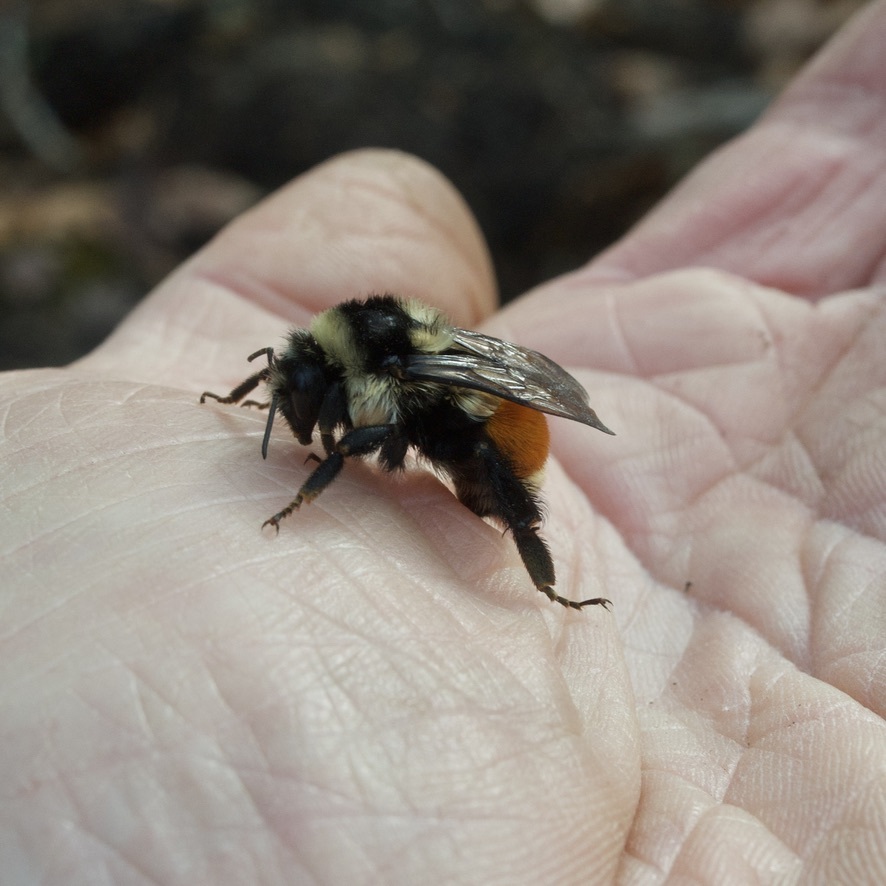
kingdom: Animalia
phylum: Arthropoda
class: Insecta
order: Hymenoptera
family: Apidae
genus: Bombus
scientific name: Bombus ternarius
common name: Tri-colored bumble bee
